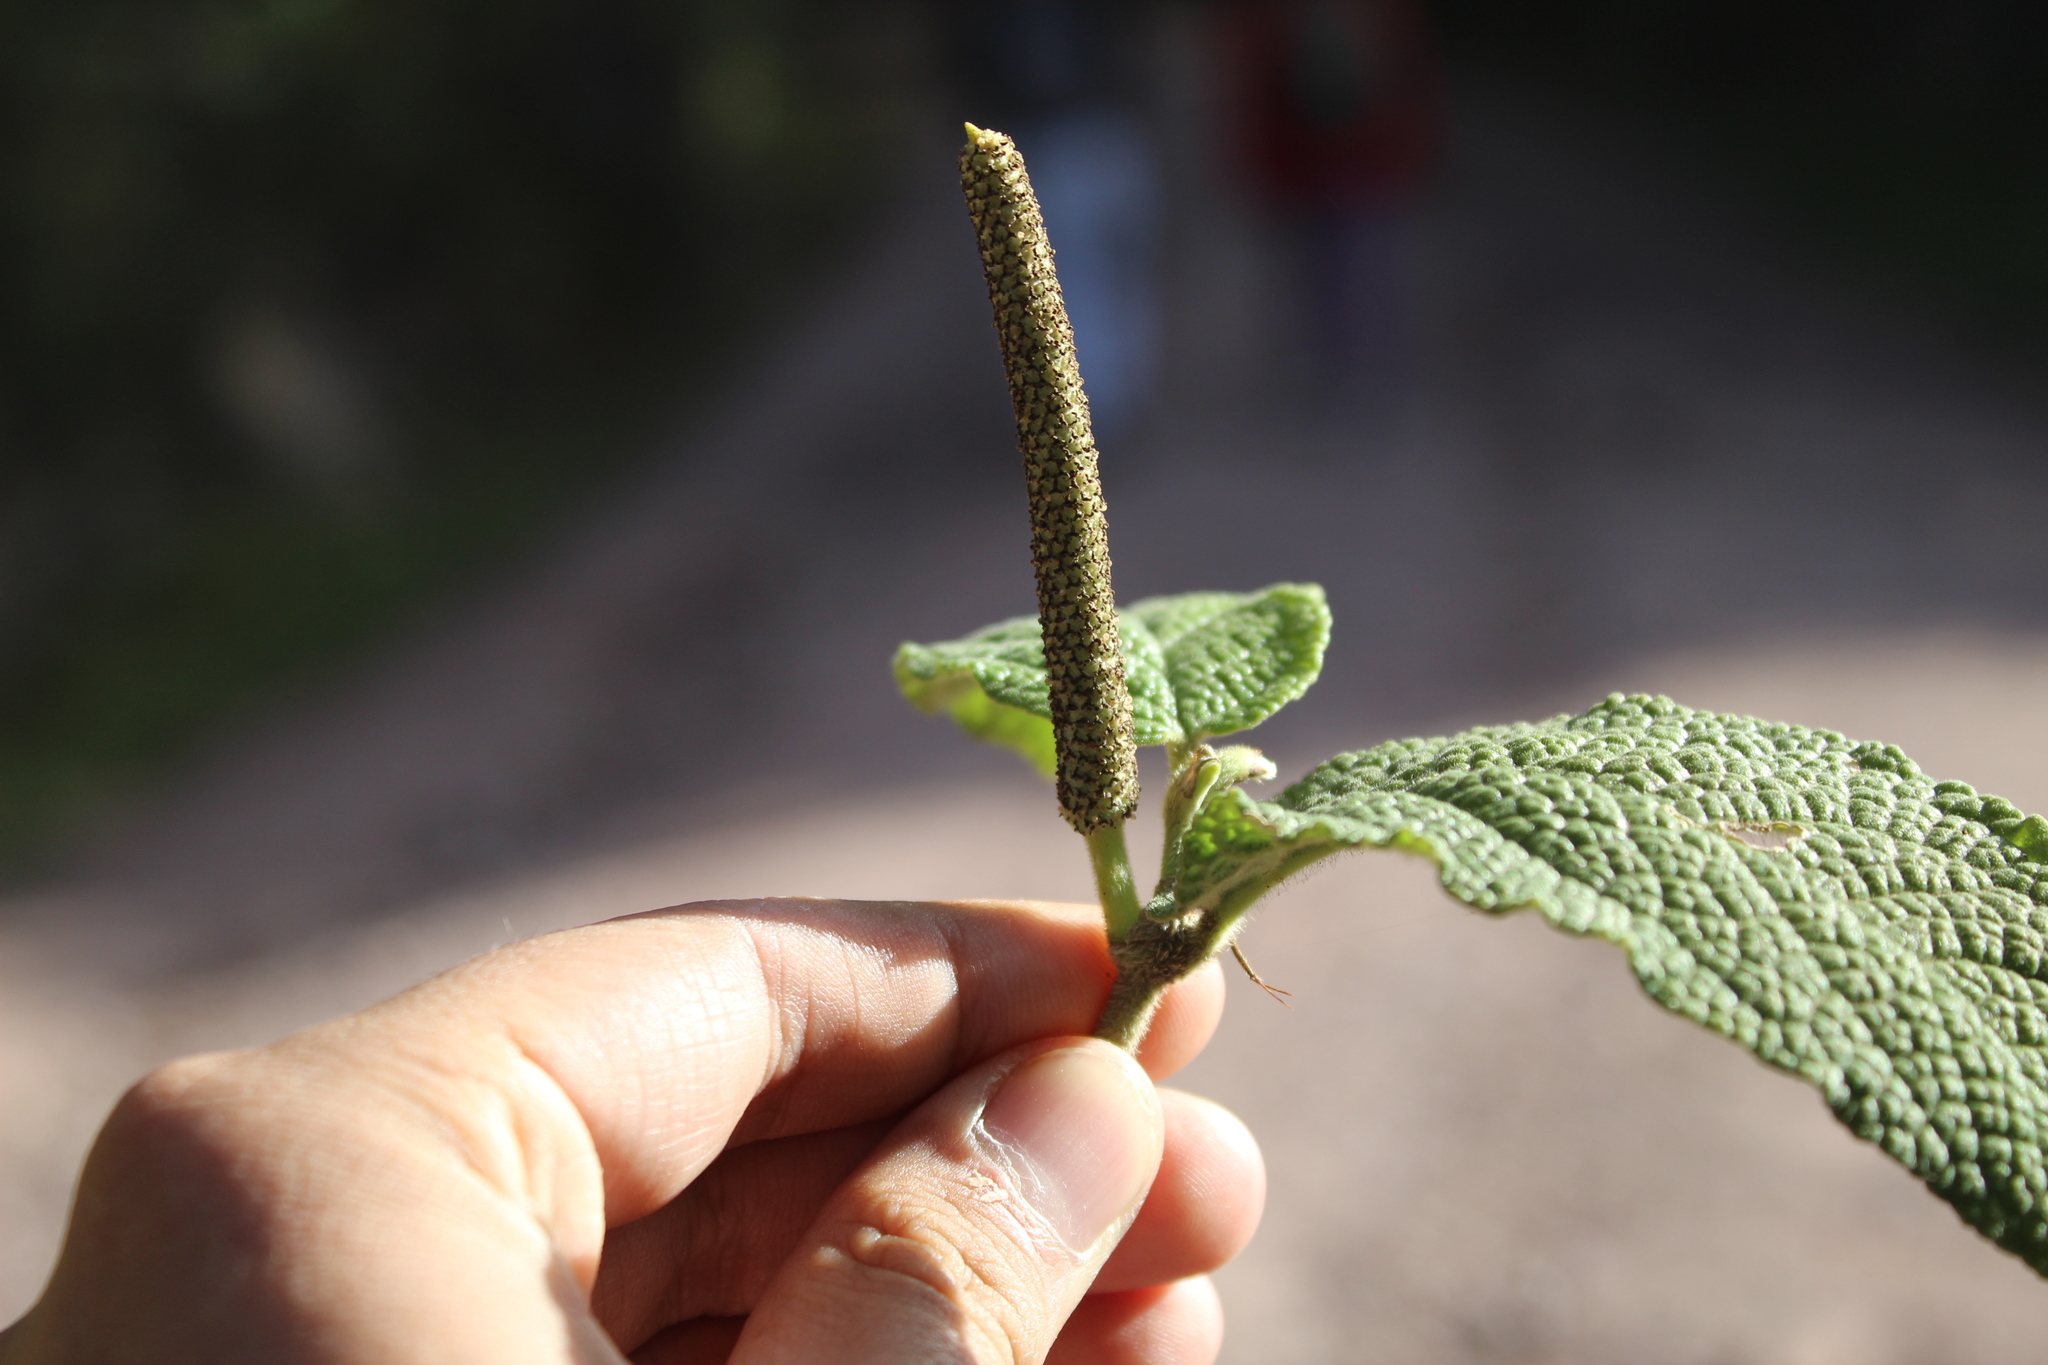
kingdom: Plantae
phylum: Tracheophyta
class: Magnoliopsida
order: Piperales
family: Piperaceae
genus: Piper
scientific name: Piper artanthe
